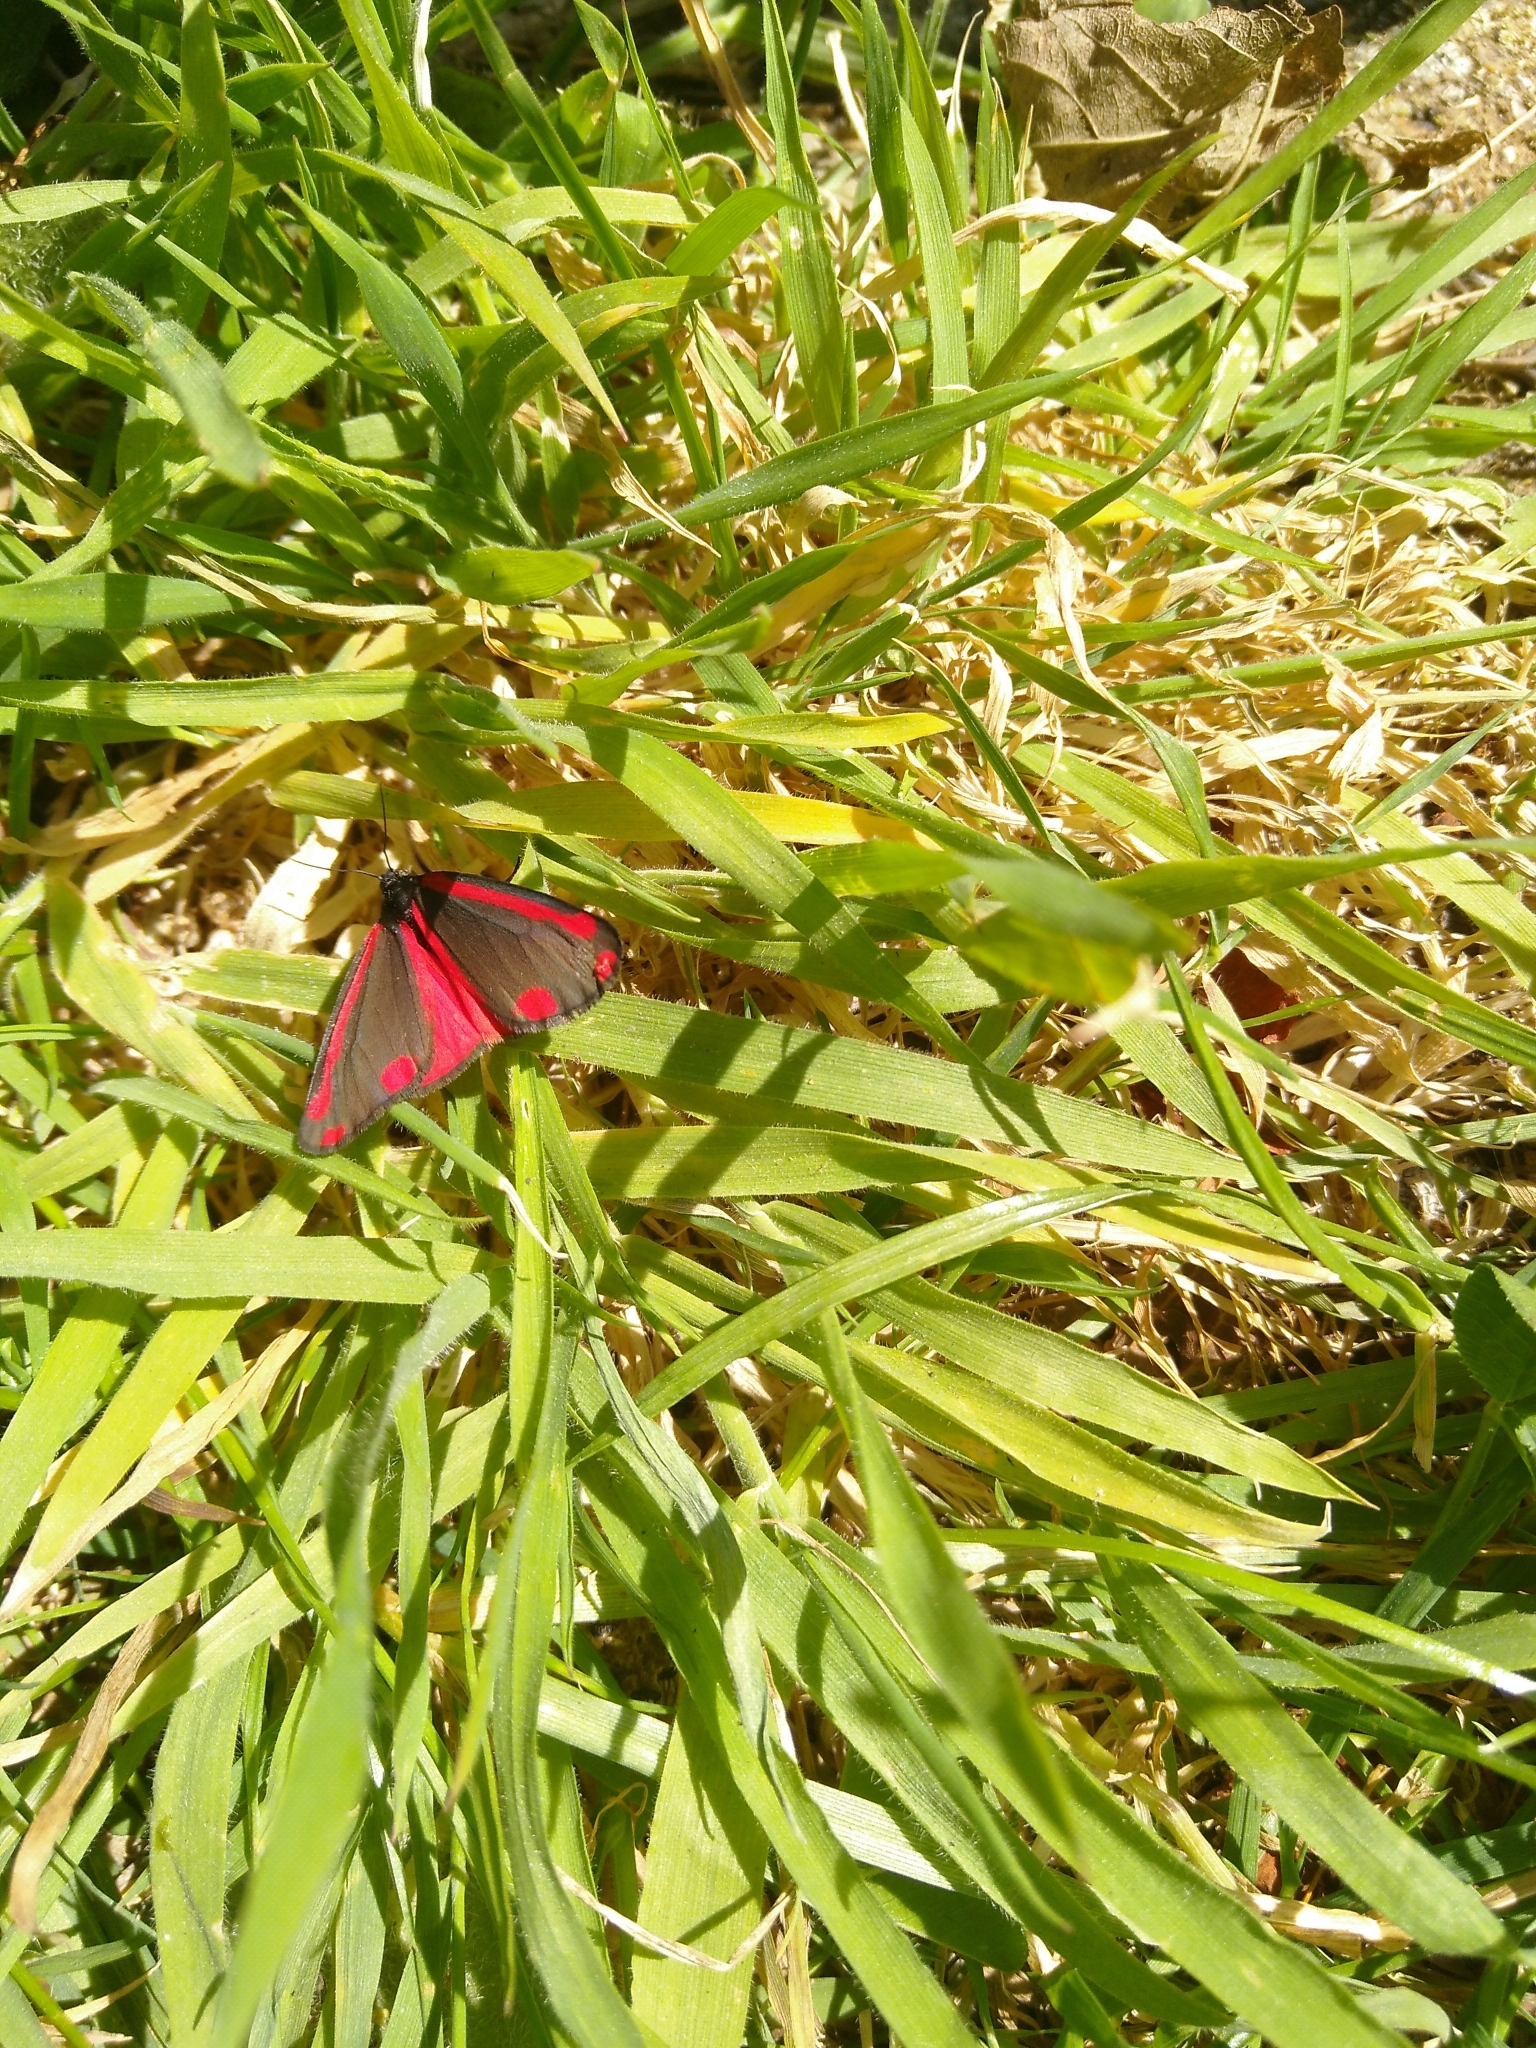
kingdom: Animalia
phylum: Arthropoda
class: Insecta
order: Lepidoptera
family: Erebidae
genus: Tyria
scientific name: Tyria jacobaeae
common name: Cinnabar
